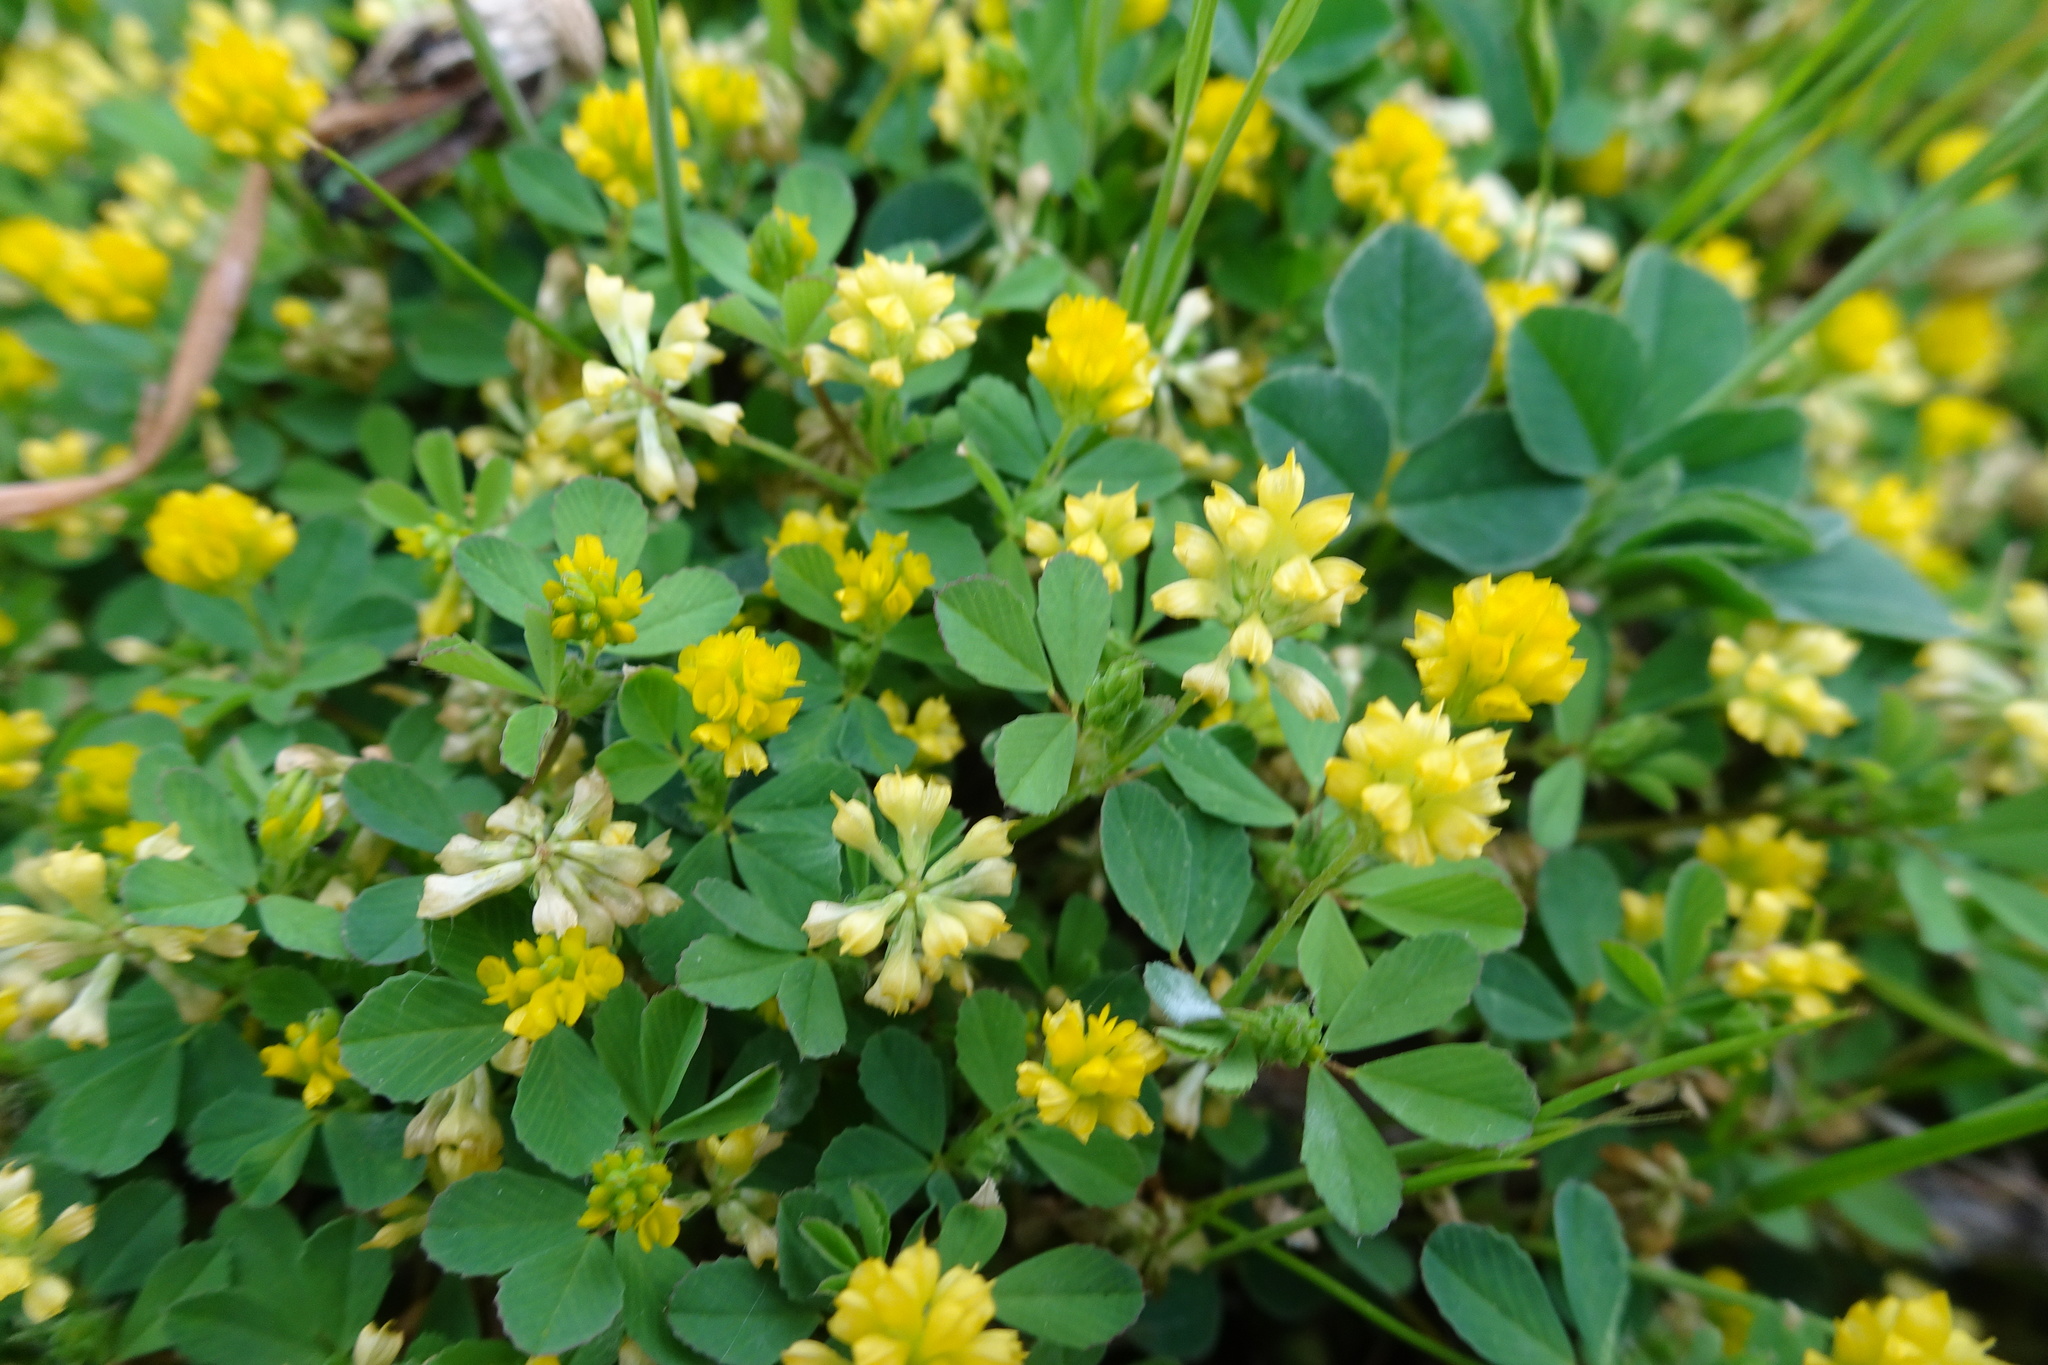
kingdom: Plantae
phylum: Tracheophyta
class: Magnoliopsida
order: Fabales
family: Fabaceae
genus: Trifolium
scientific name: Trifolium dubium
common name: Suckling clover
